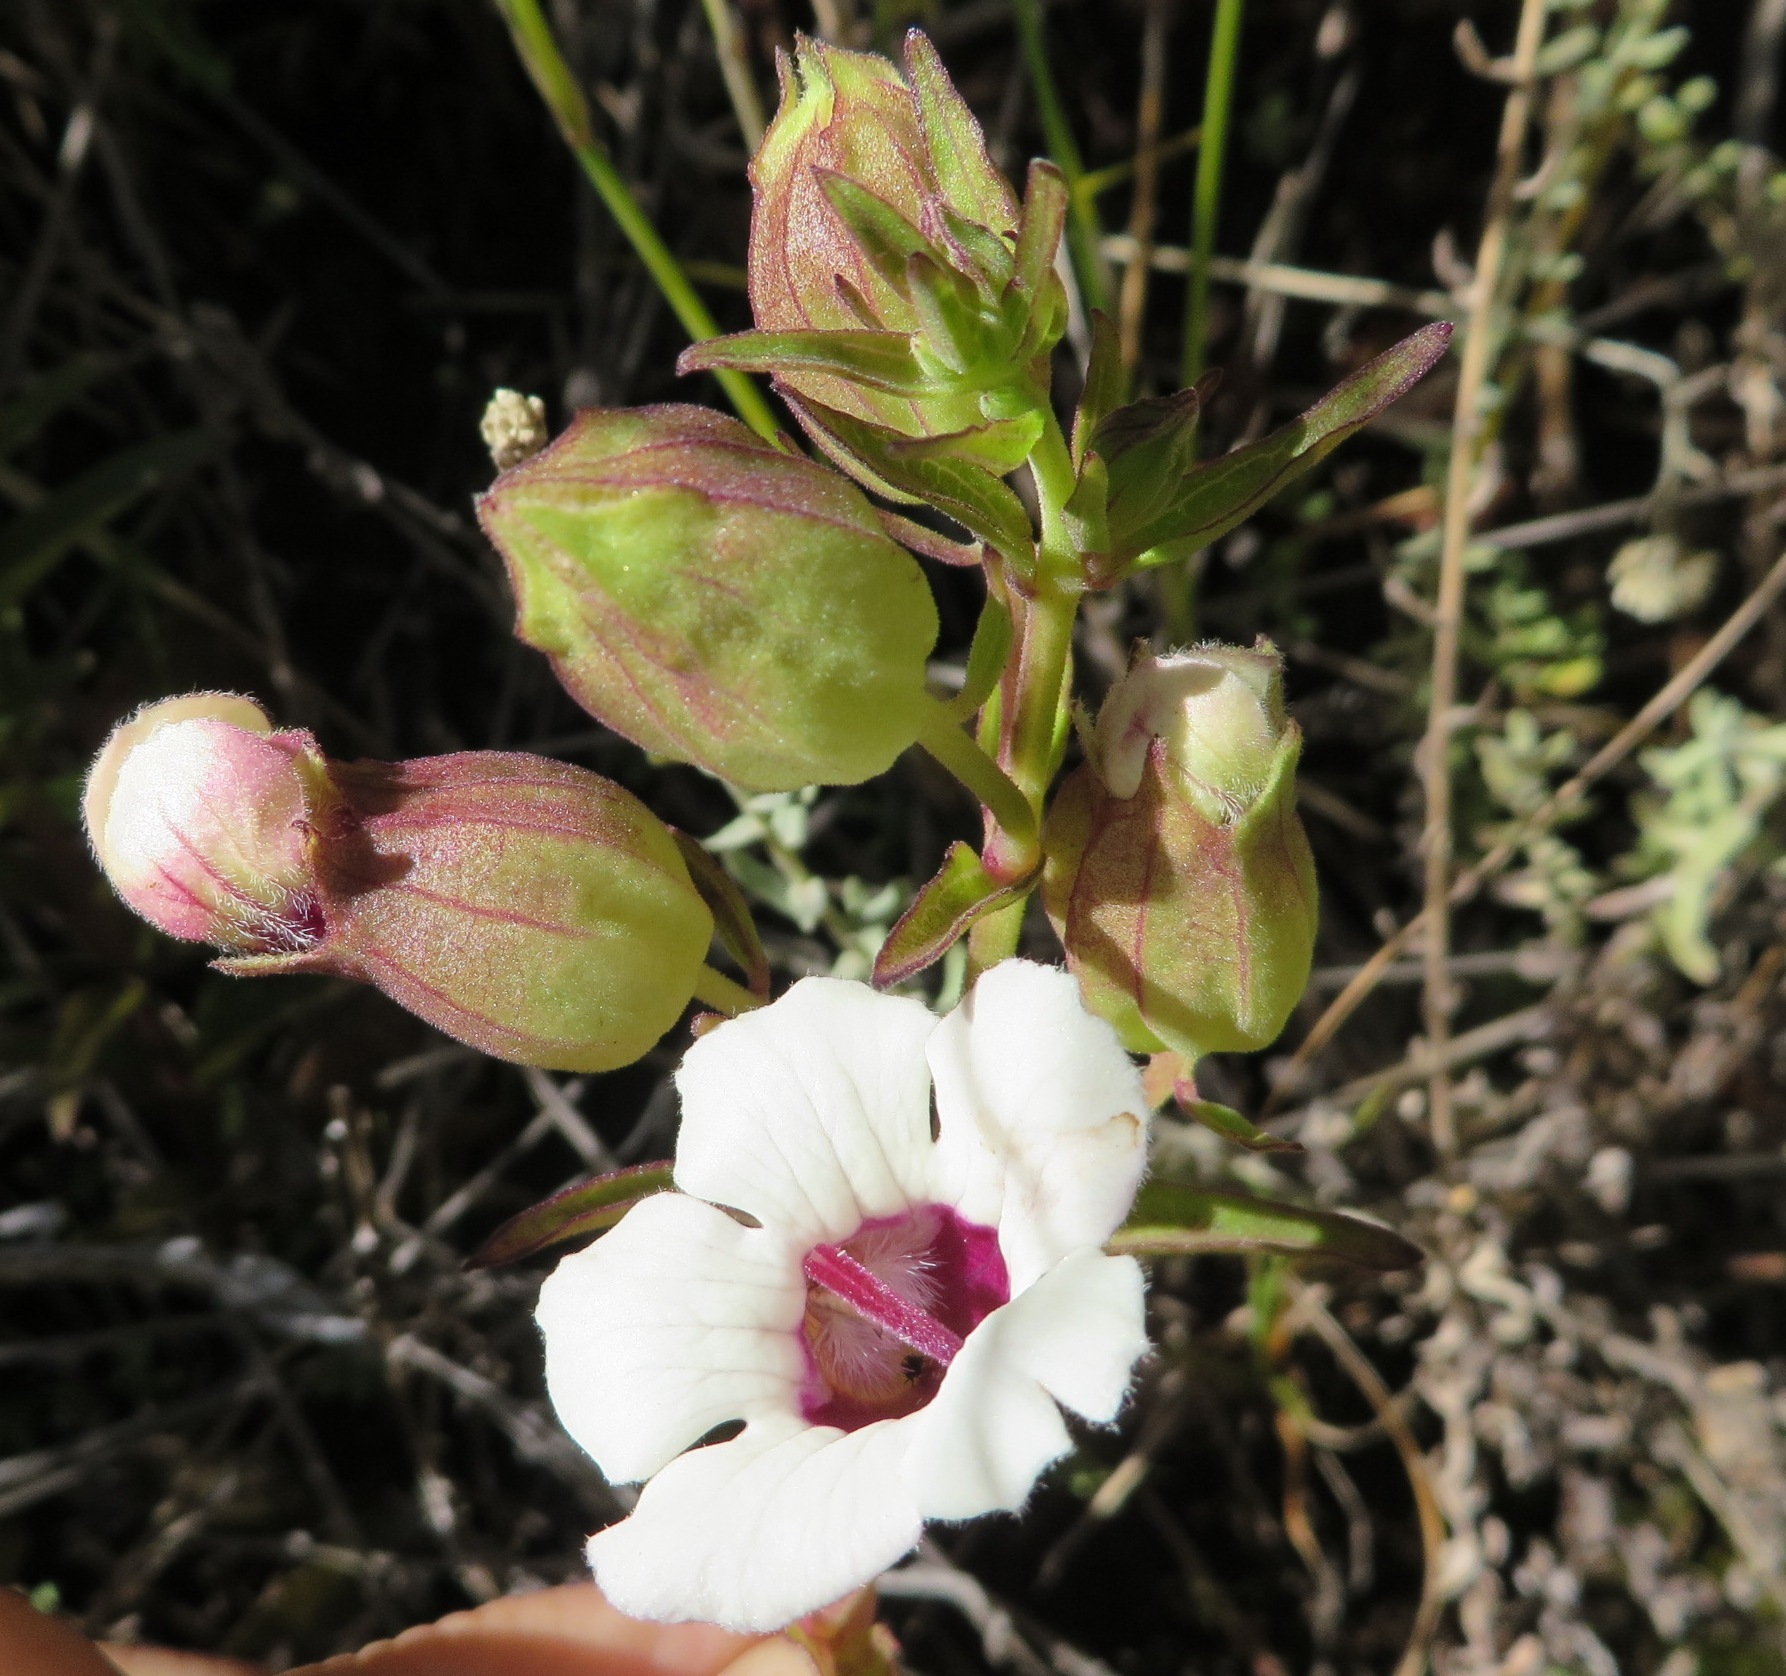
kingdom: Plantae
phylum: Tracheophyta
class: Magnoliopsida
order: Lamiales
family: Orobanchaceae
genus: Melasma
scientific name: Melasma scabrum
